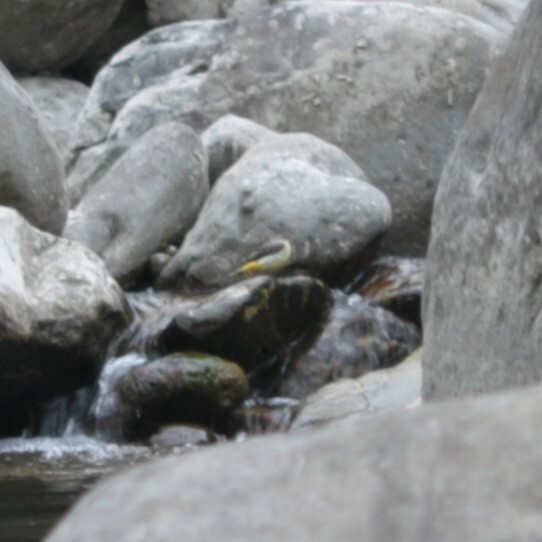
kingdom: Animalia
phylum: Chordata
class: Aves
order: Passeriformes
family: Motacillidae
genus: Motacilla
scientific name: Motacilla cinerea
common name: Grey wagtail
